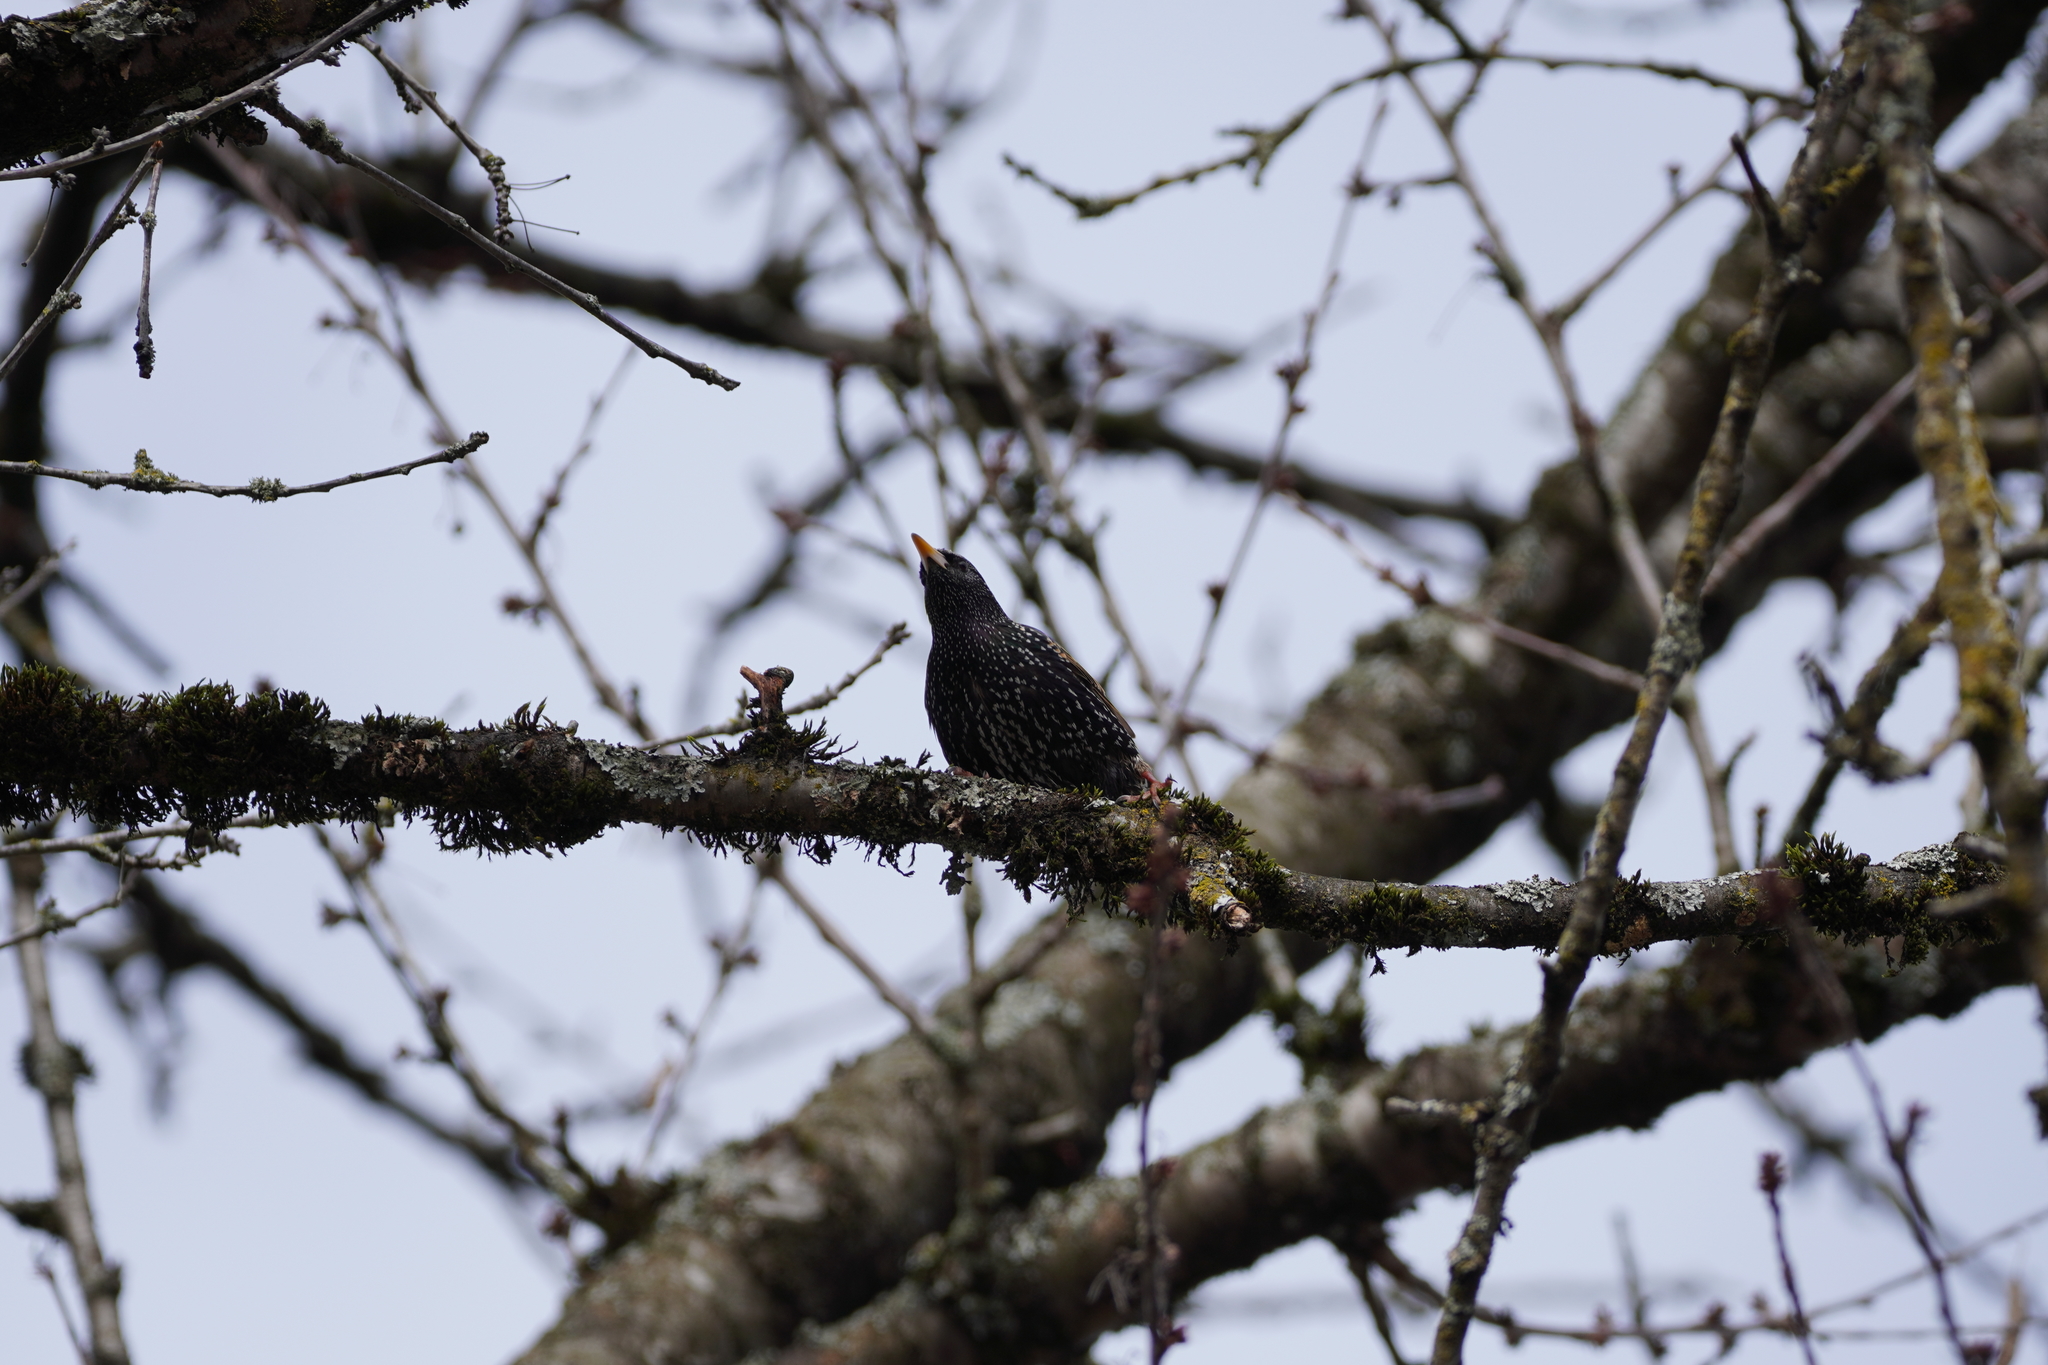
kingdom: Animalia
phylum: Chordata
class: Aves
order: Passeriformes
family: Sturnidae
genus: Sturnus
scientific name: Sturnus vulgaris
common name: Common starling
